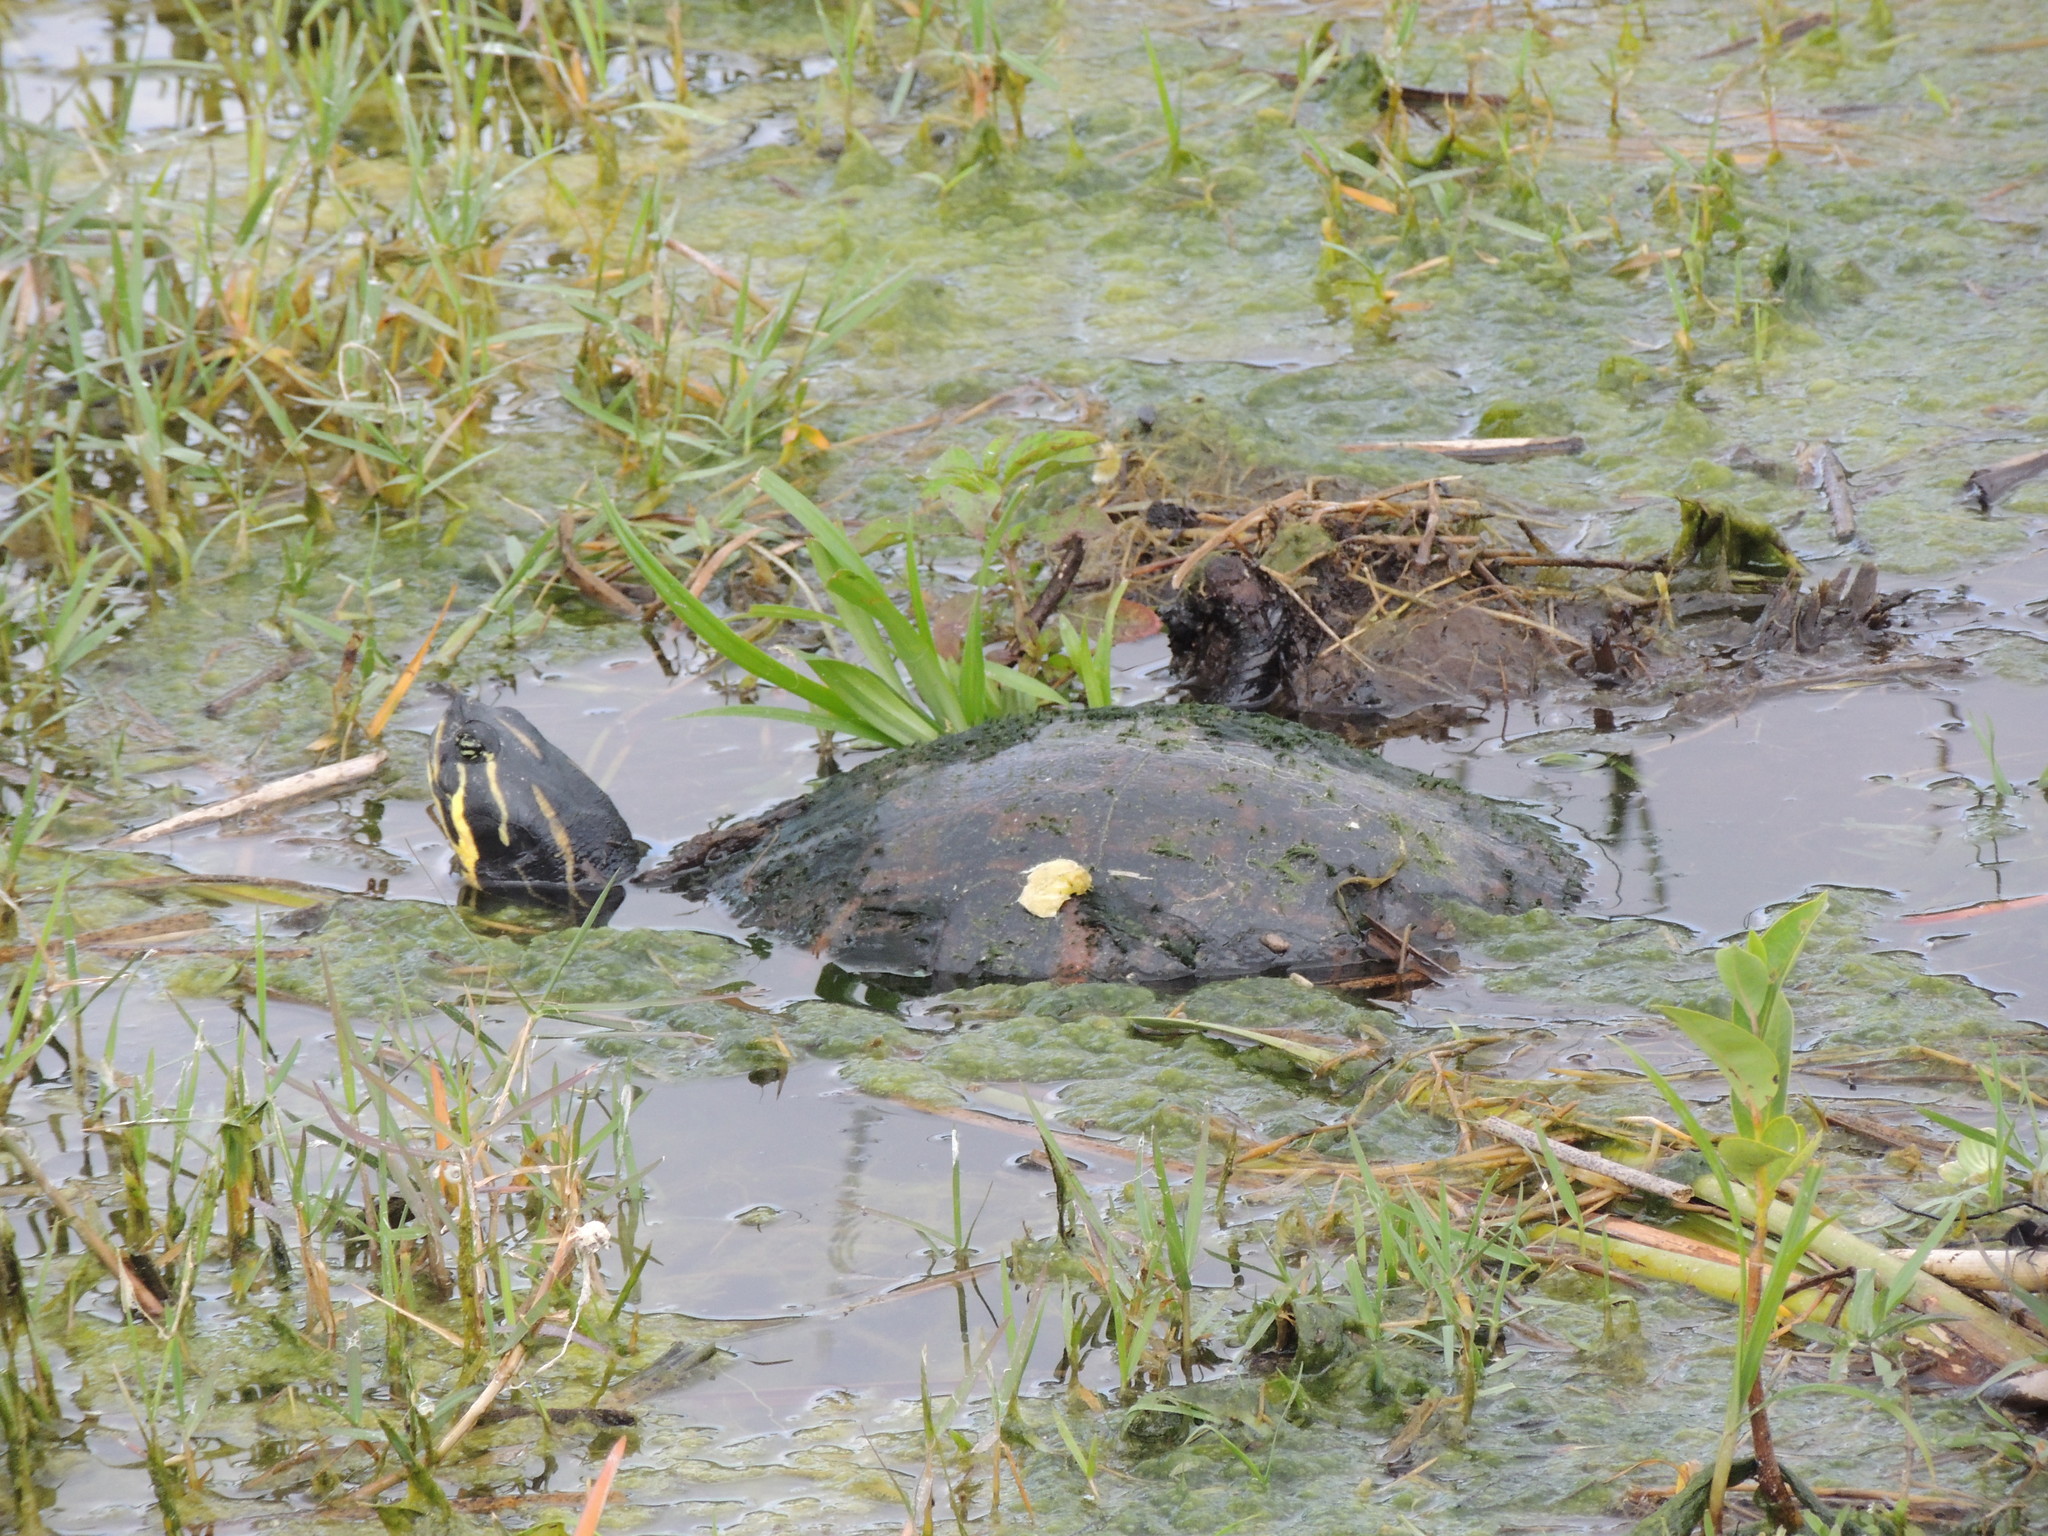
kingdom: Animalia
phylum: Chordata
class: Testudines
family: Emydidae
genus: Pseudemys
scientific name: Pseudemys nelsoni
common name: Florida red-bellied turtle
